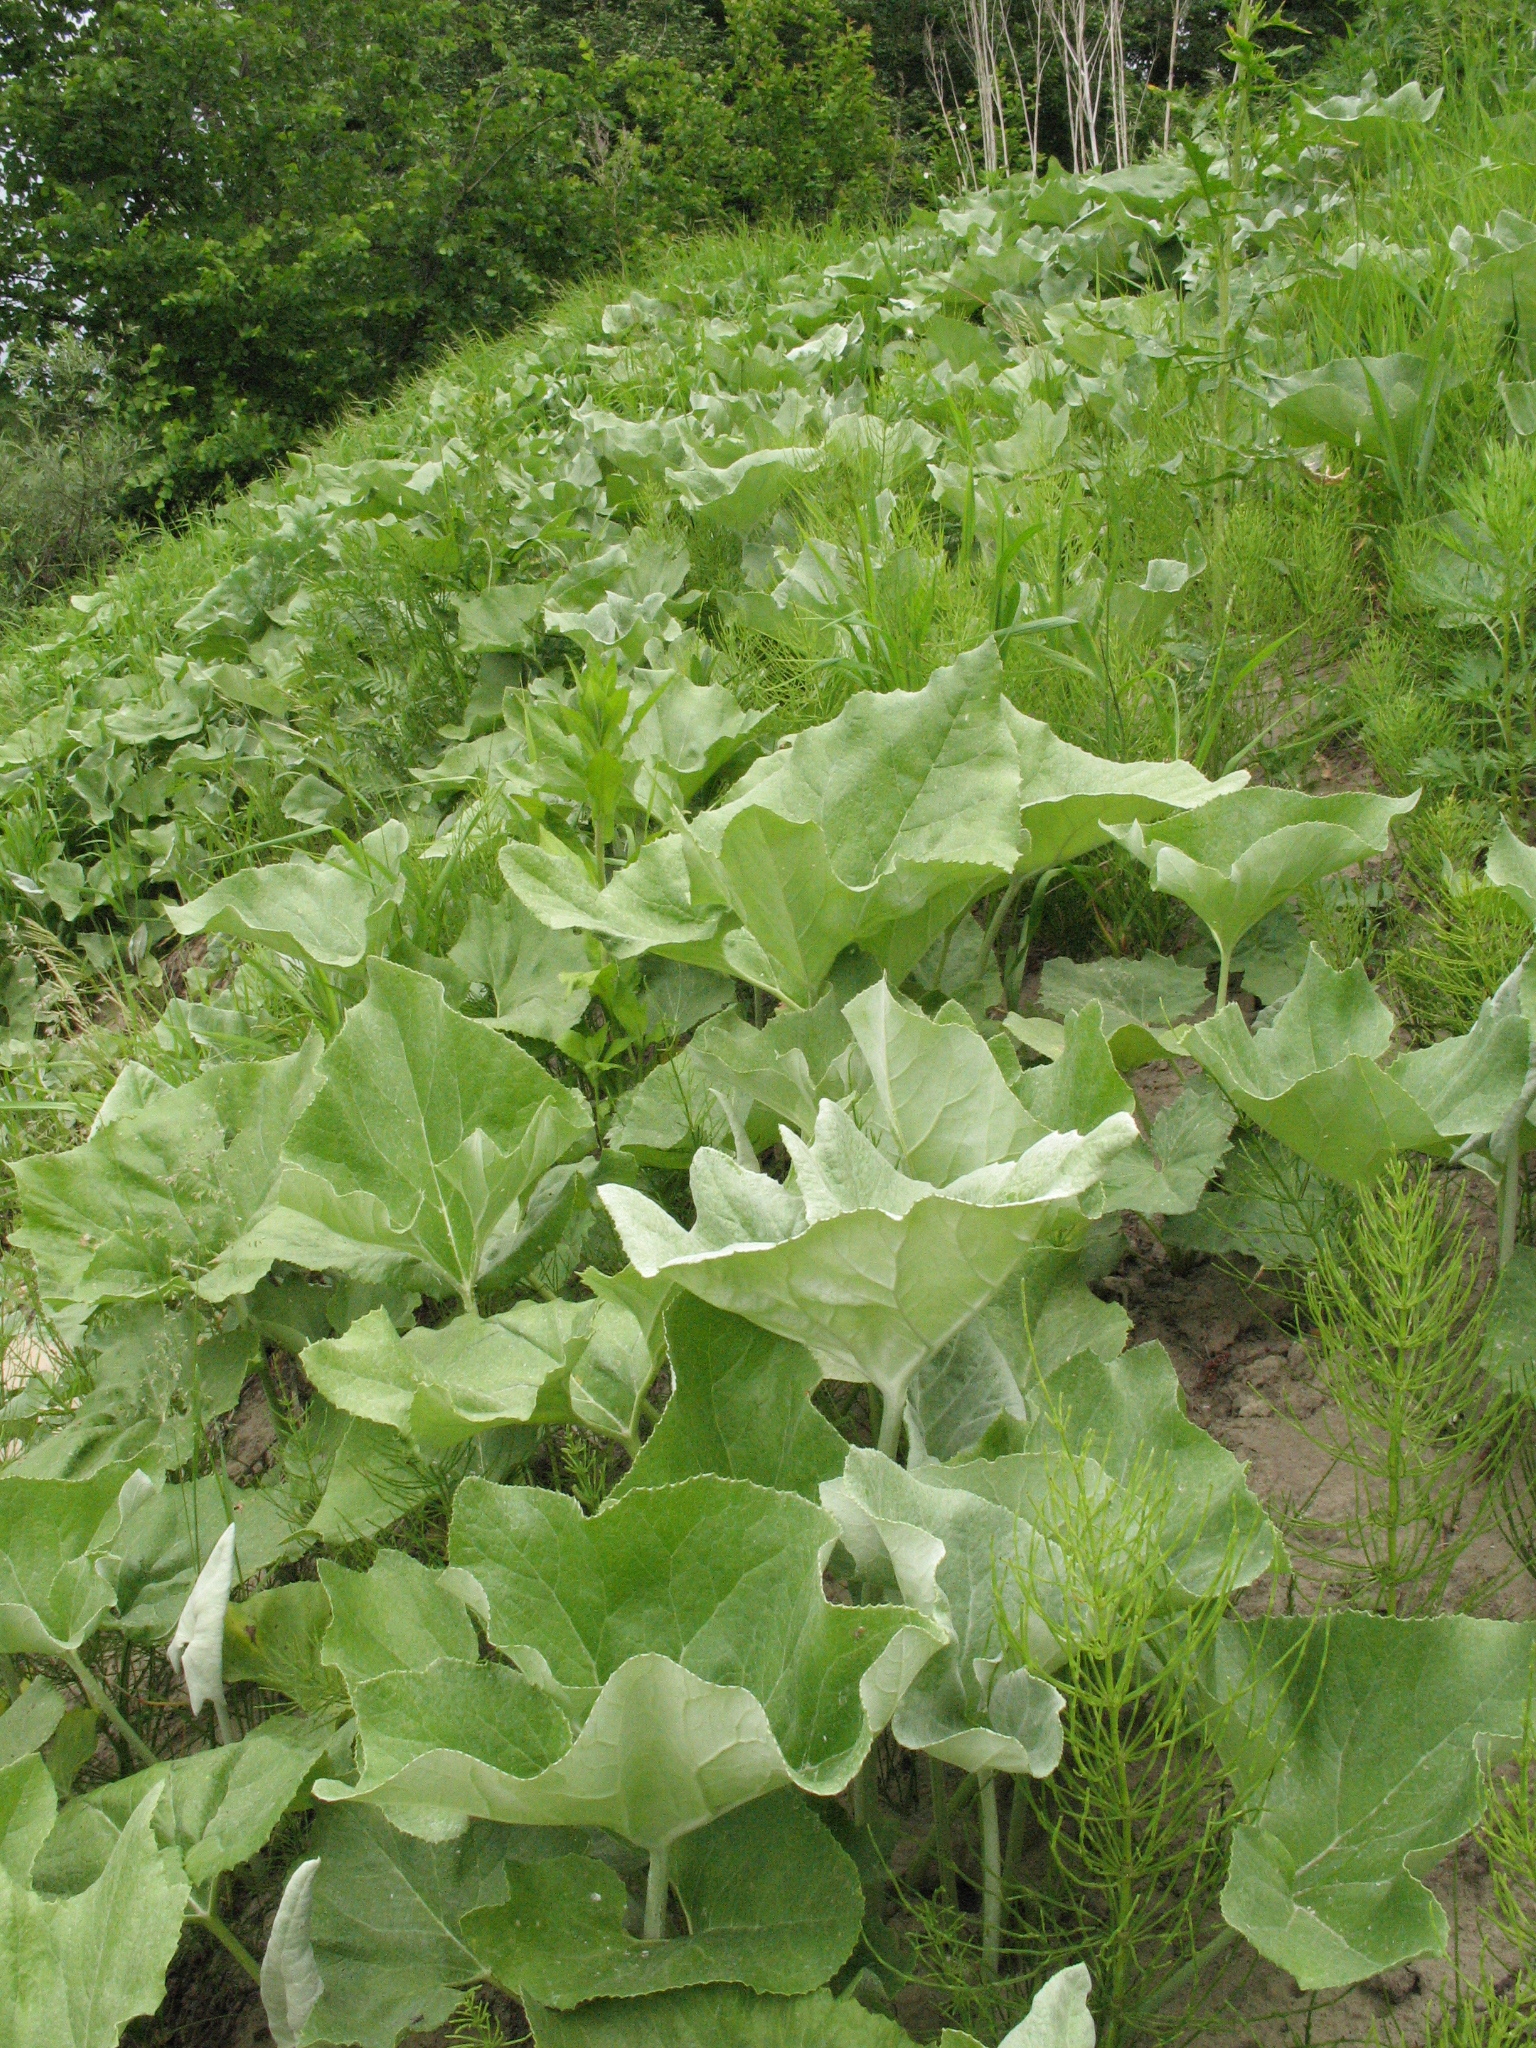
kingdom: Plantae
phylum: Tracheophyta
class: Magnoliopsida
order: Asterales
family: Asteraceae
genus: Petasites
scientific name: Petasites spurius
